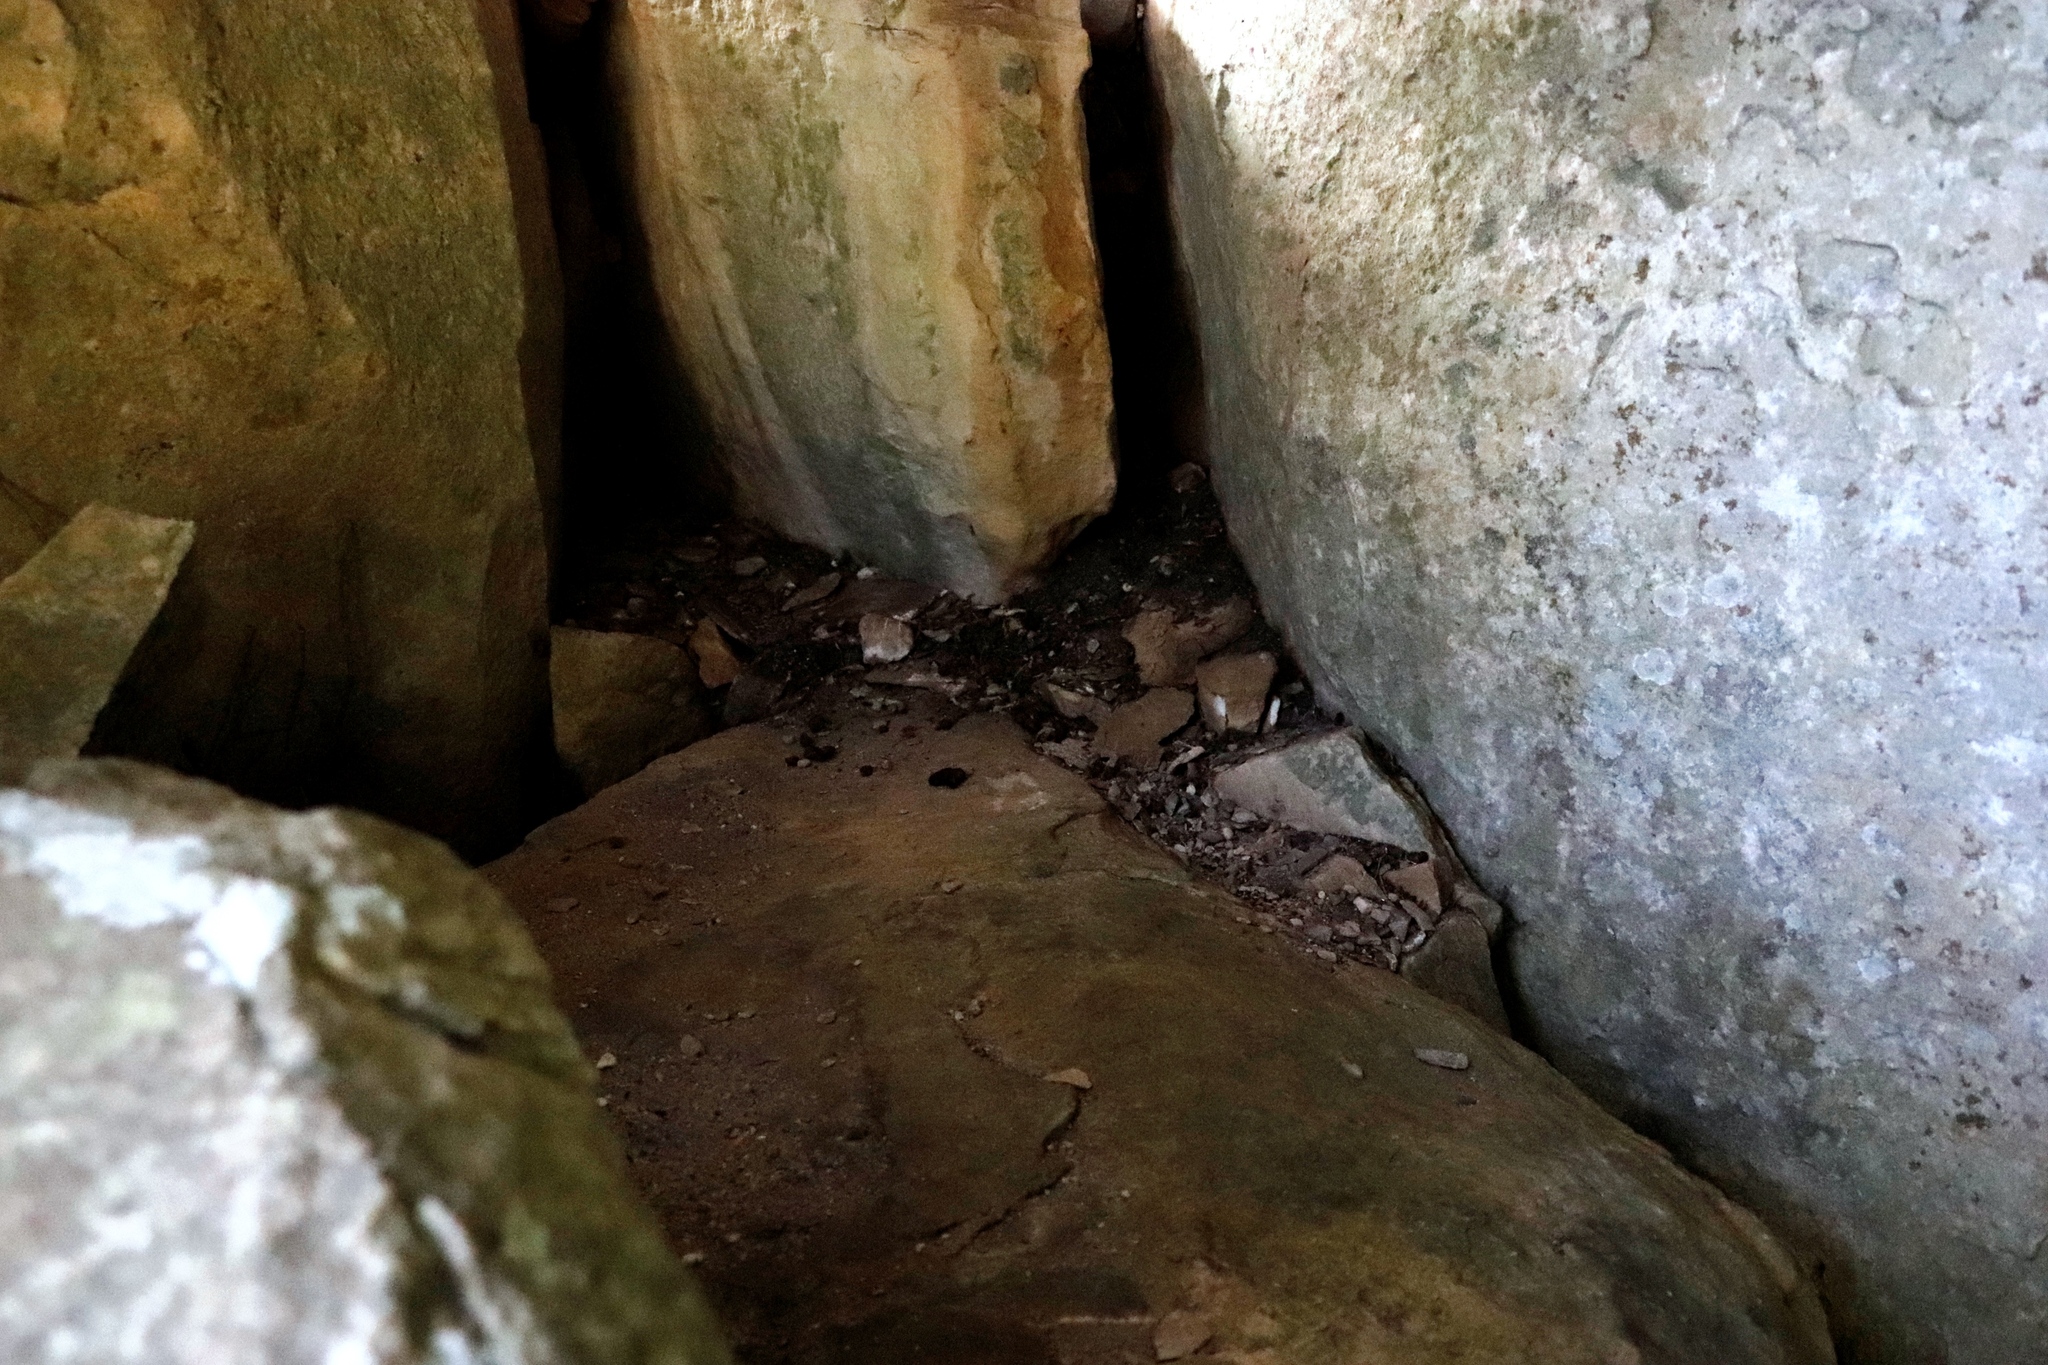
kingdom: Animalia
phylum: Chordata
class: Mammalia
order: Hyracoidea
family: Procaviidae
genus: Procavia
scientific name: Procavia capensis
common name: Rock hyrax
